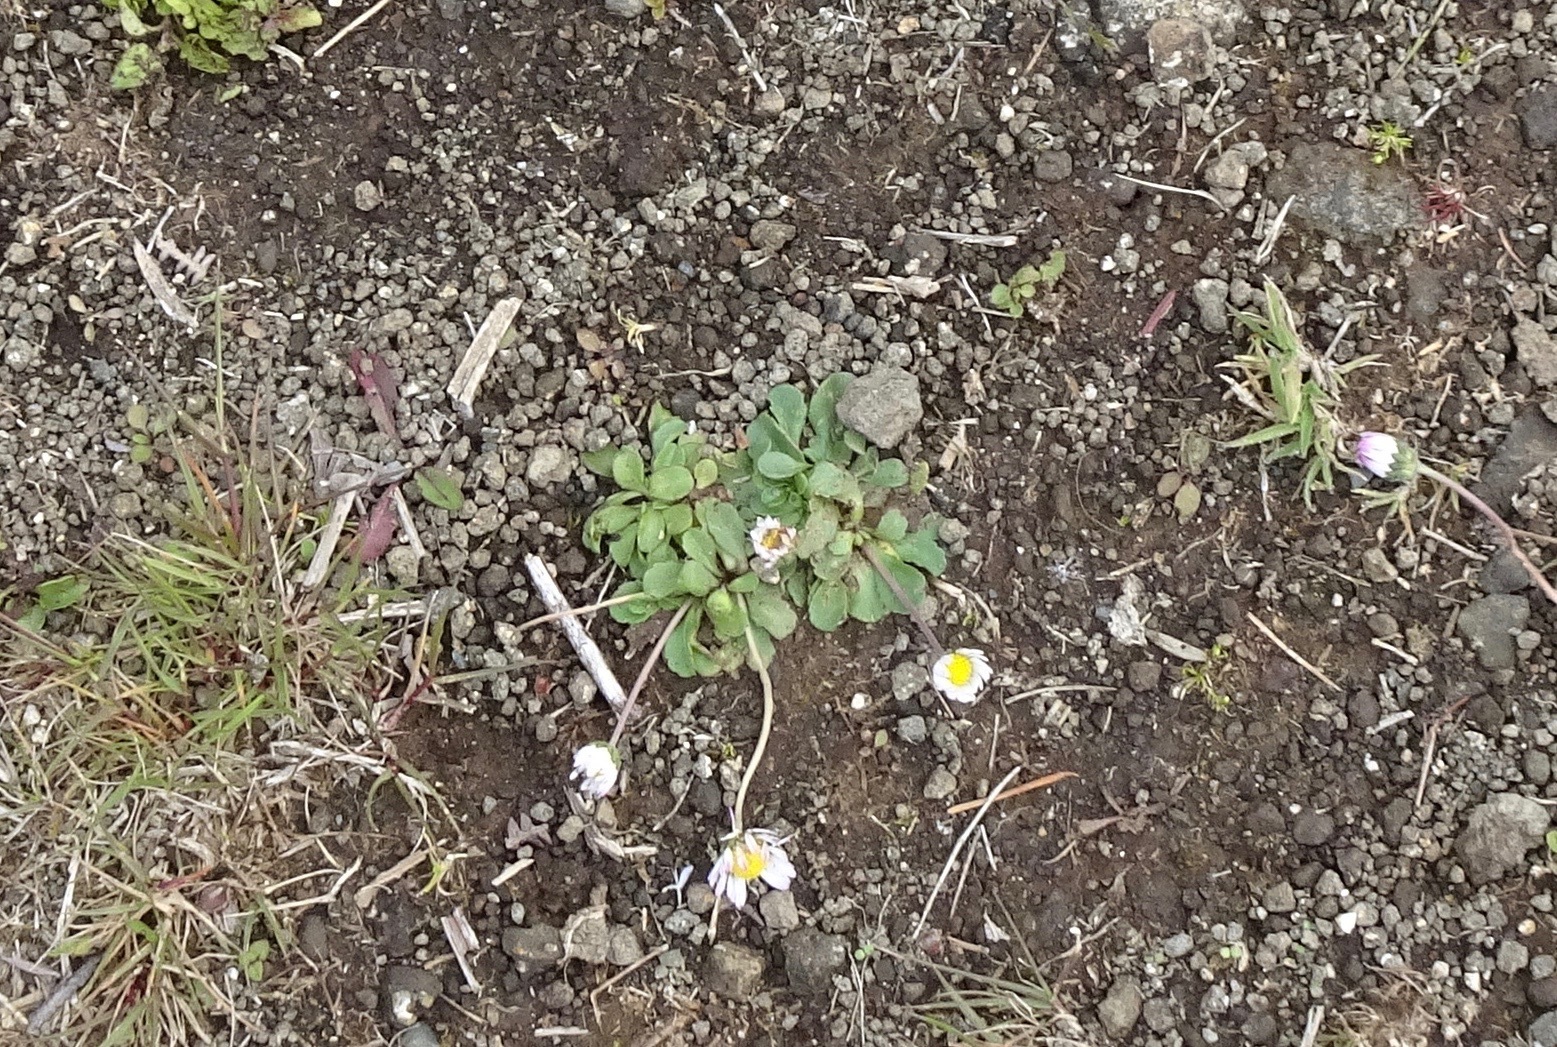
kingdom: Plantae
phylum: Tracheophyta
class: Magnoliopsida
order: Asterales
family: Asteraceae
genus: Bellis
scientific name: Bellis perennis
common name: Lawndaisy
